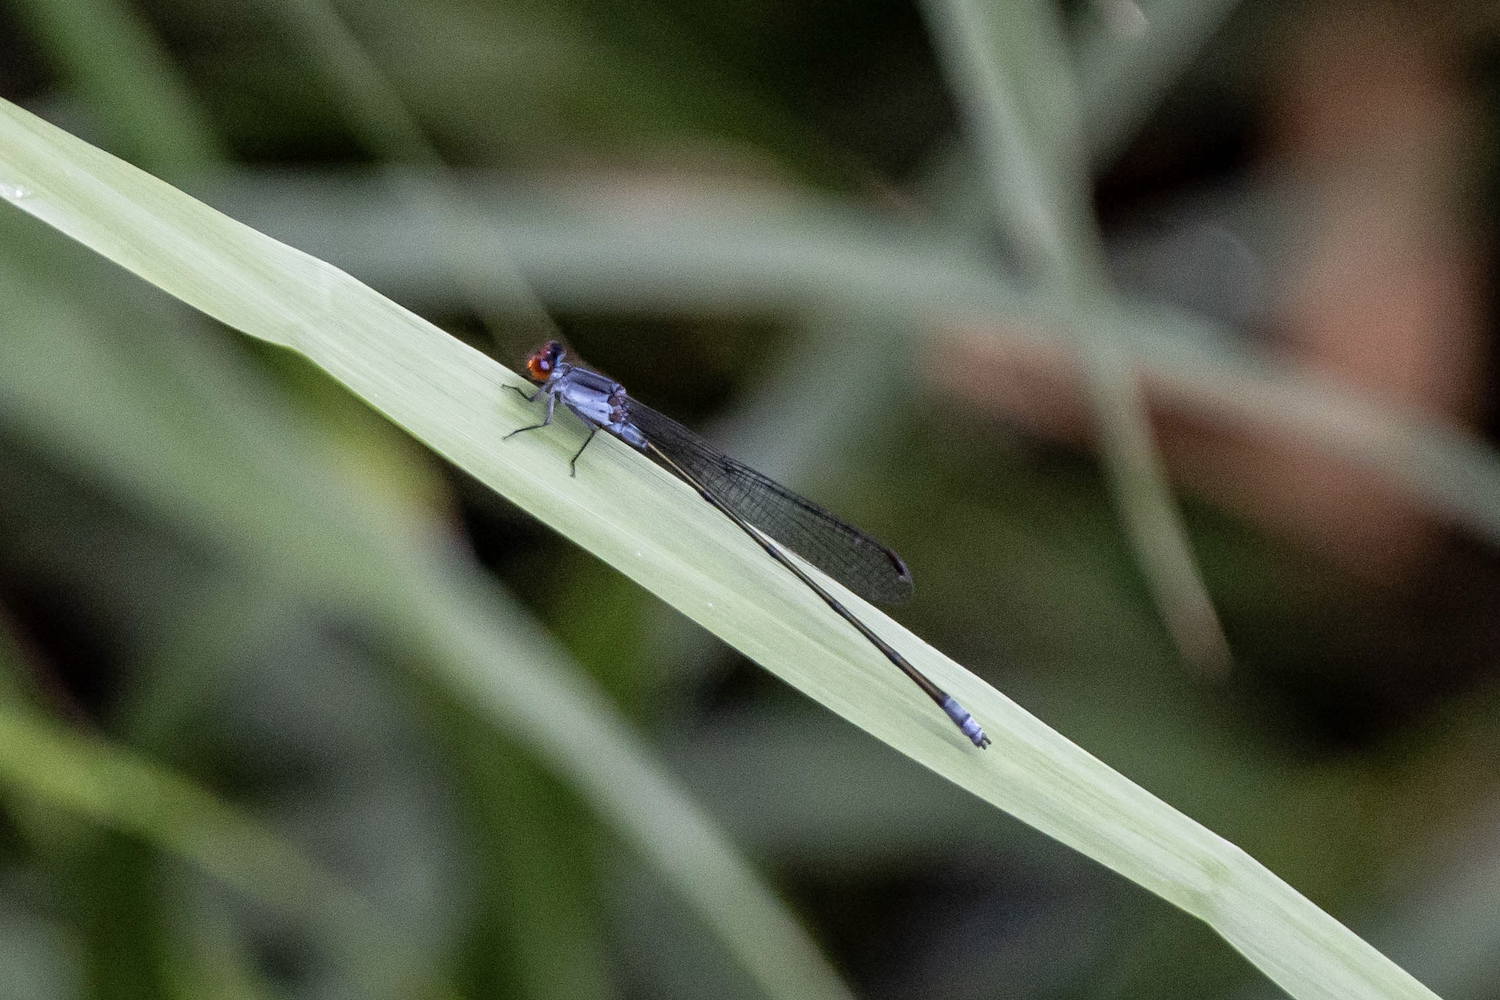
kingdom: Animalia
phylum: Arthropoda
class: Insecta
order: Odonata
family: Coenagrionidae
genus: Pseudagrion
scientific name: Pseudagrion pruinosum
